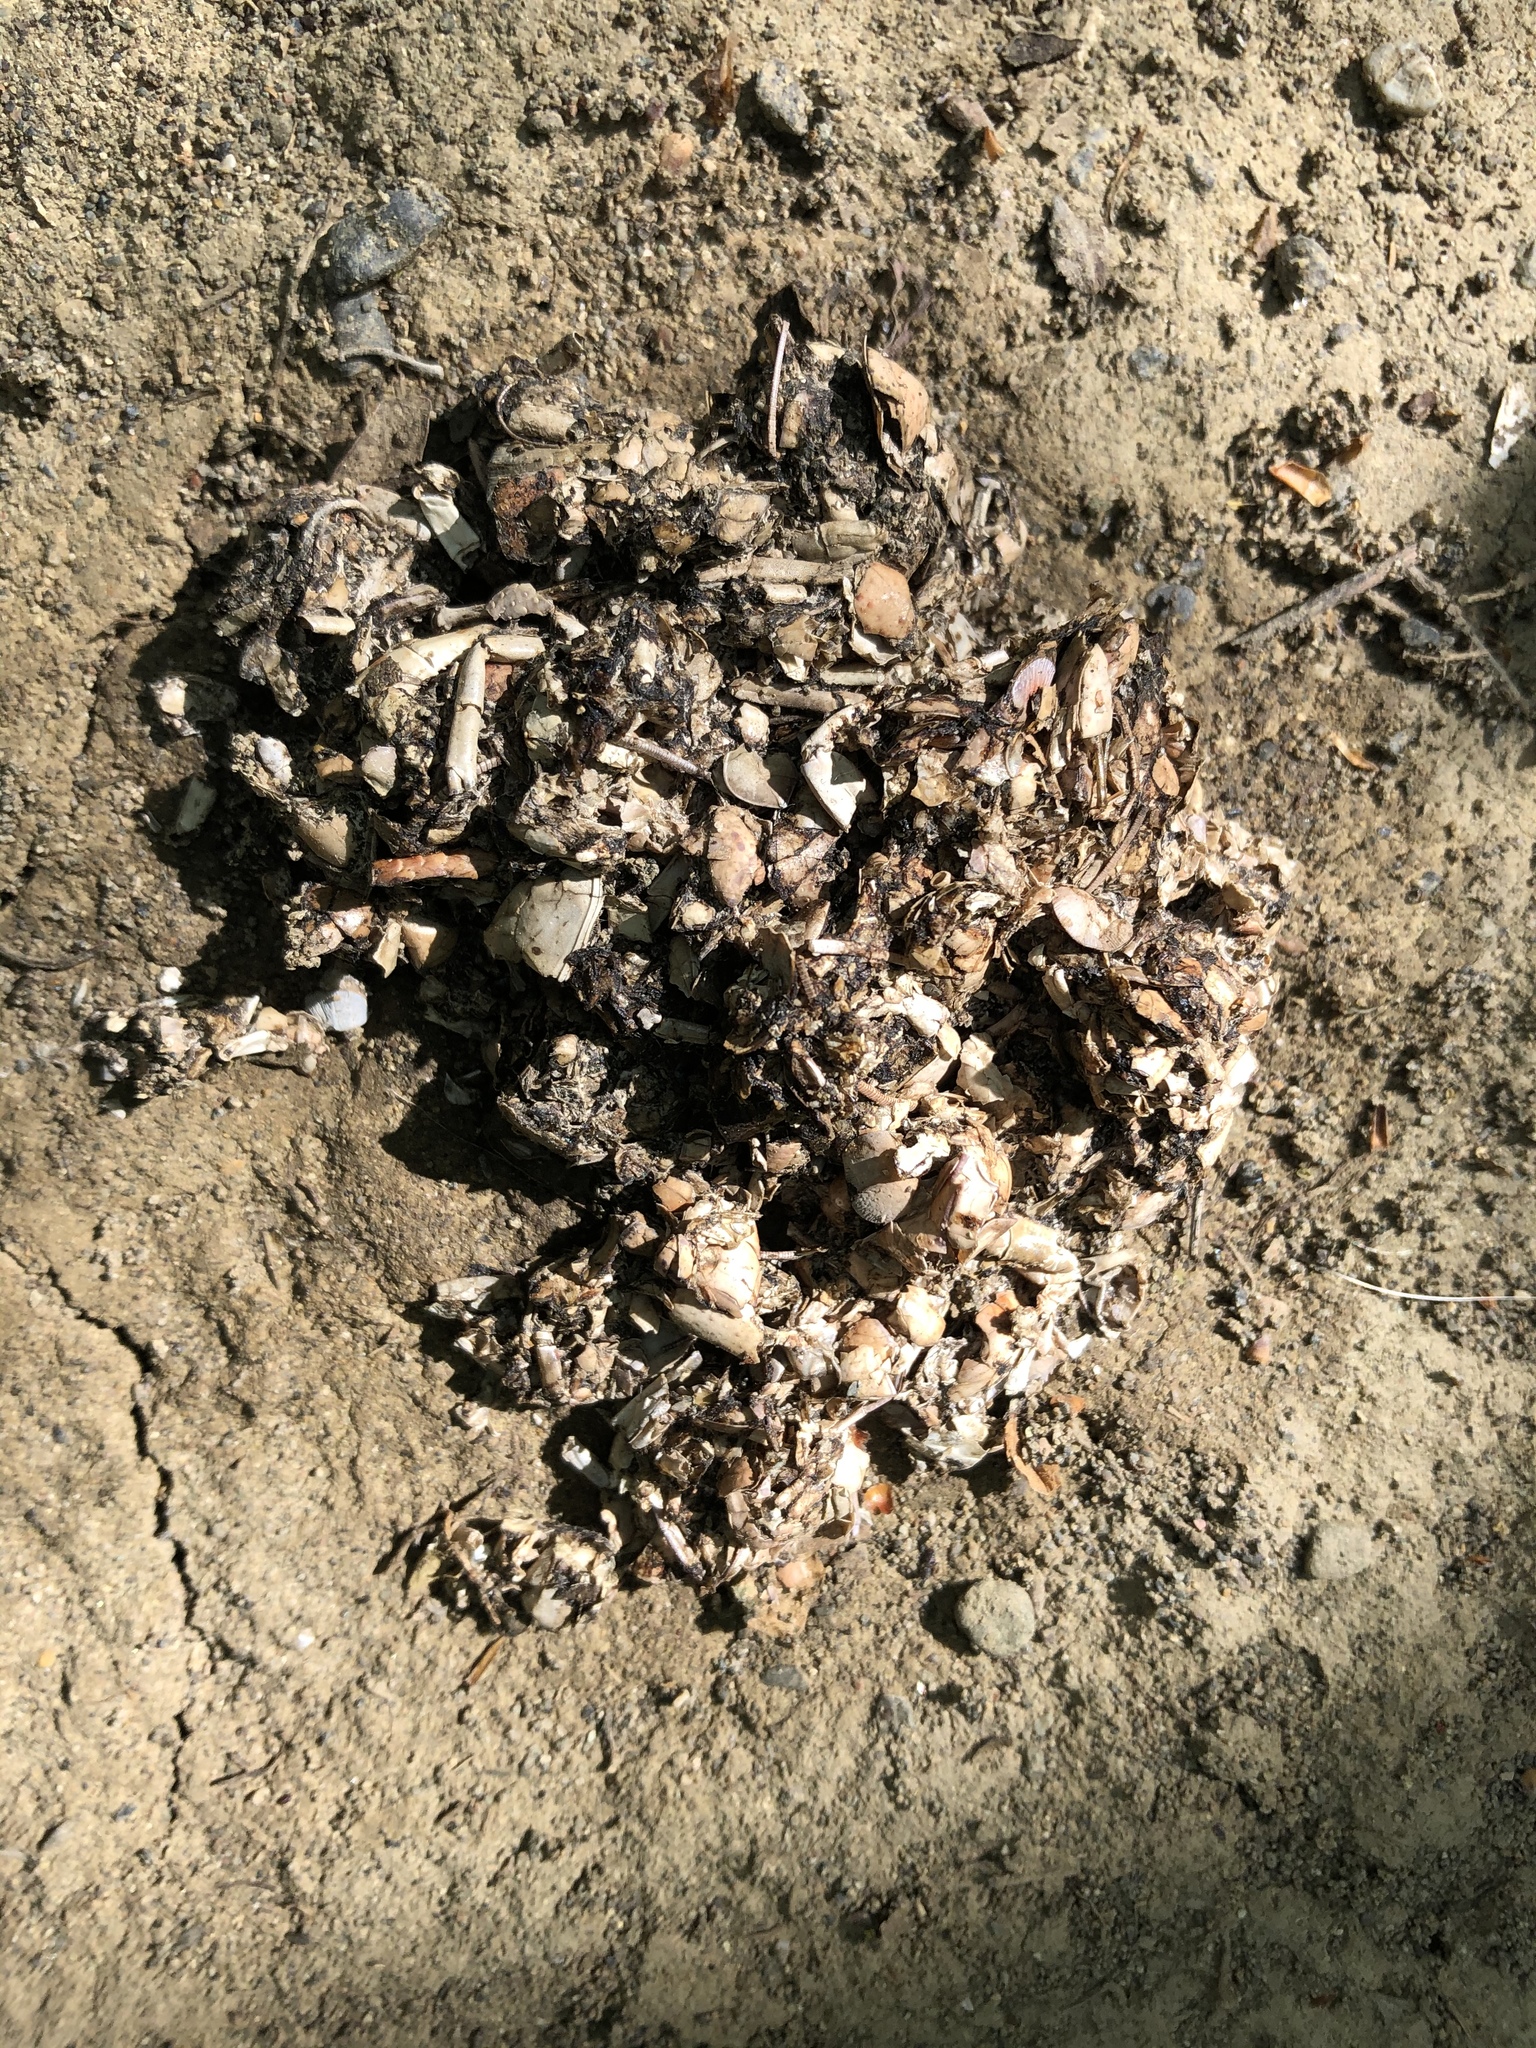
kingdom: Animalia
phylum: Chordata
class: Mammalia
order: Carnivora
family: Mustelidae
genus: Lontra
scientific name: Lontra canadensis
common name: North american river otter
